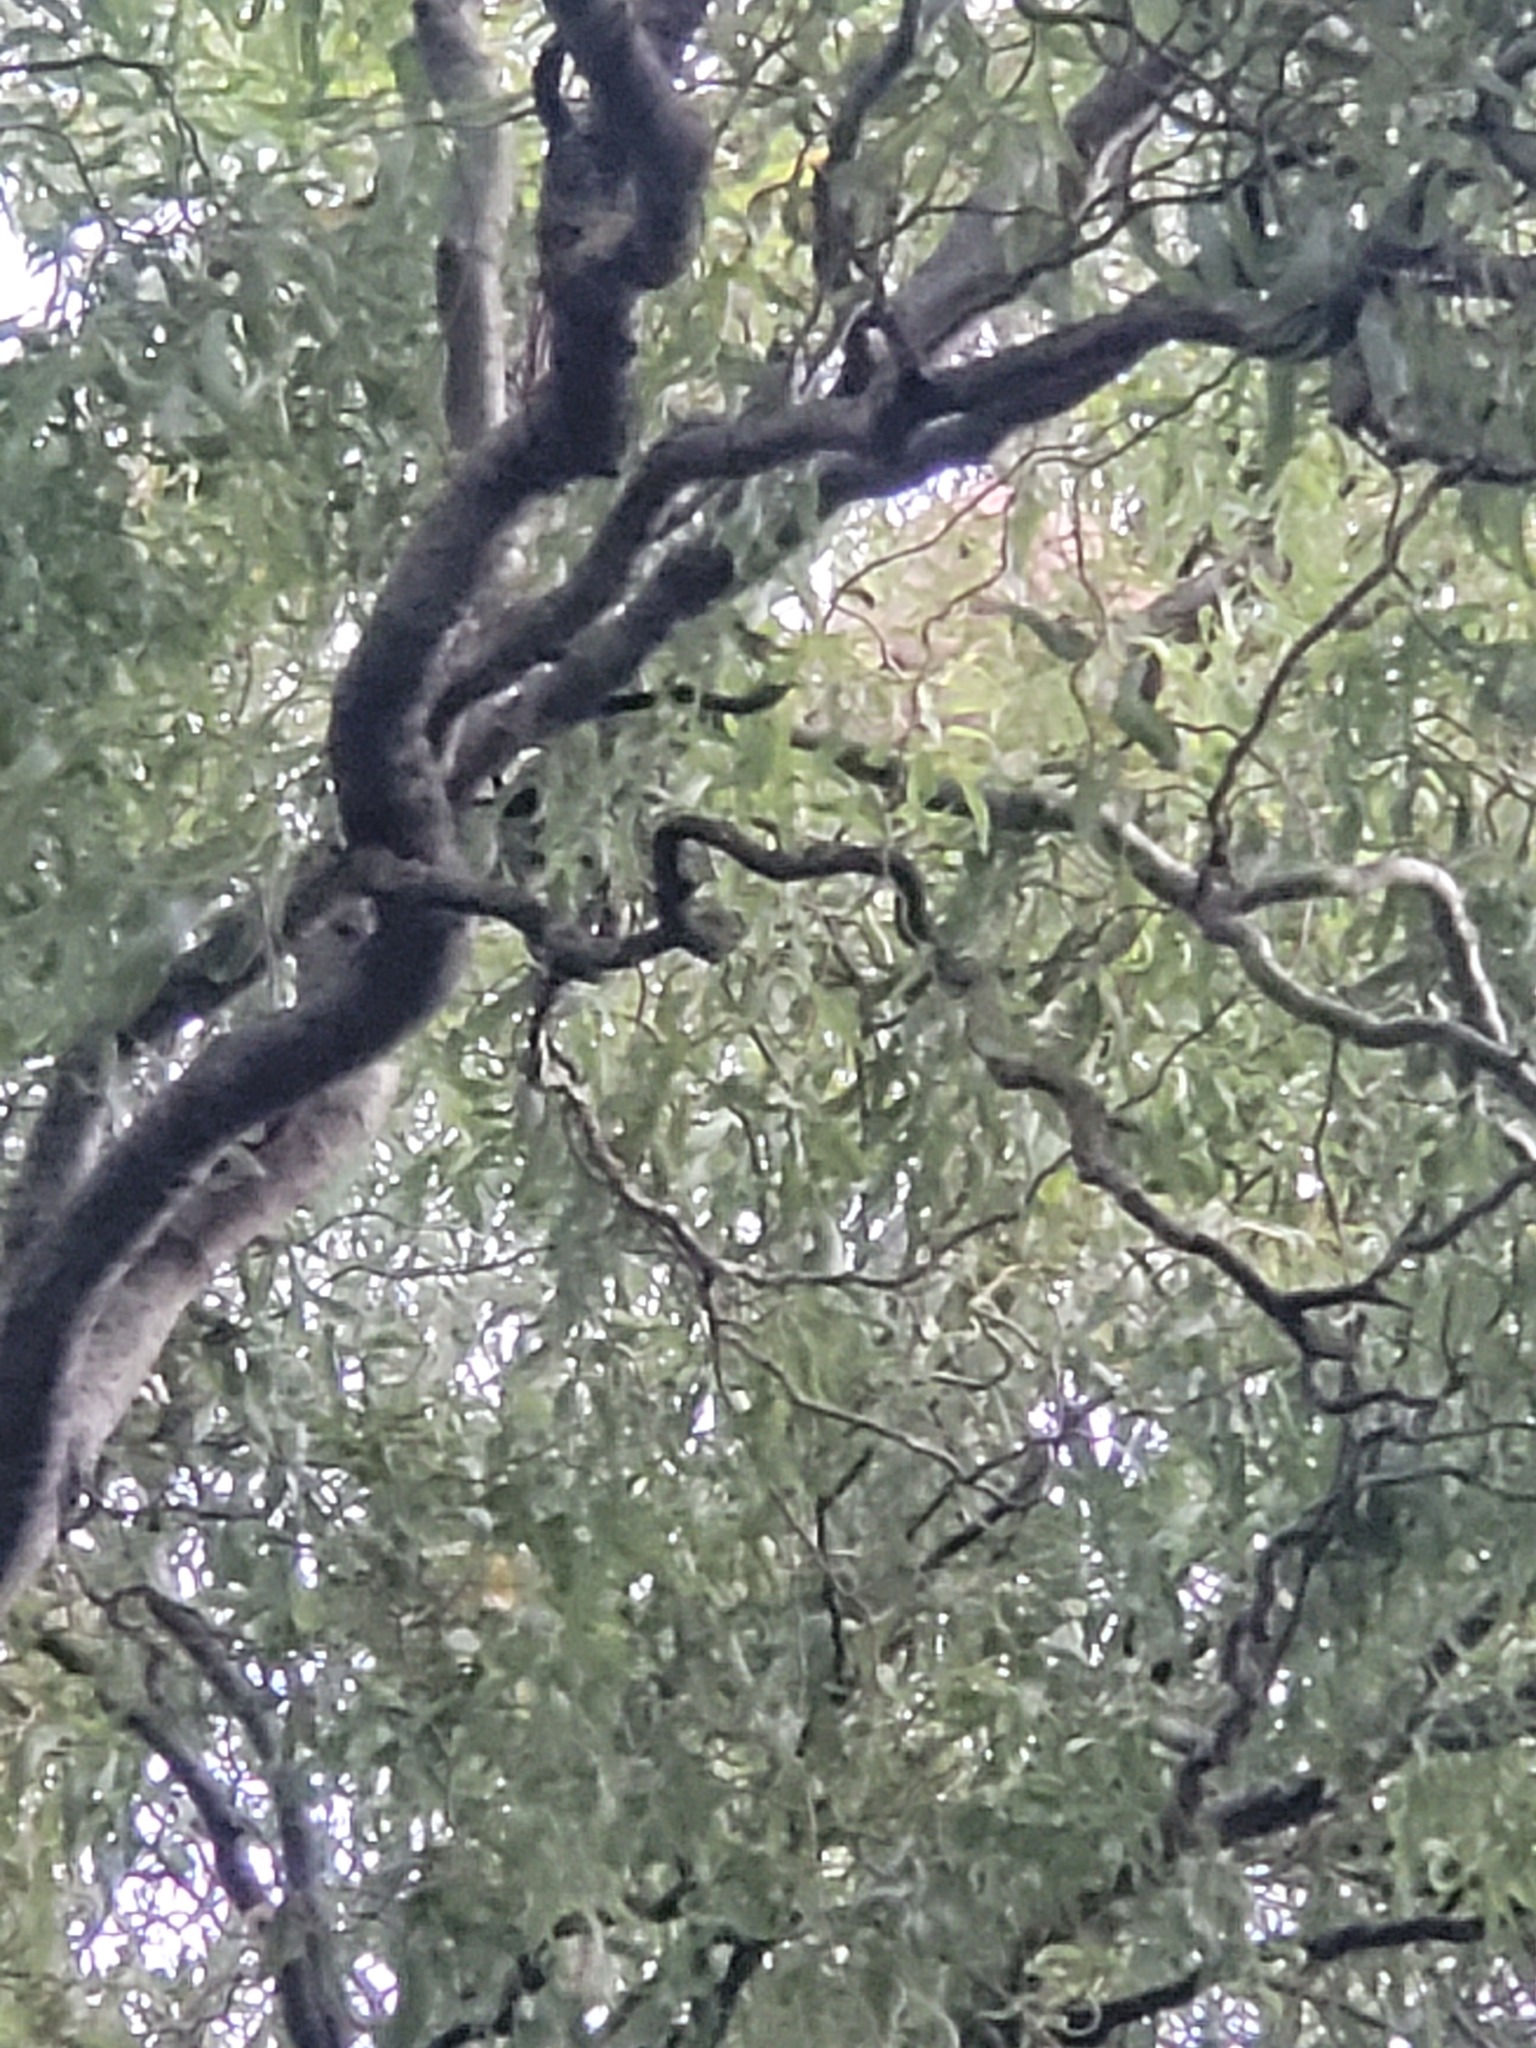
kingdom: Animalia
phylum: Arthropoda
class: Insecta
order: Hymenoptera
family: Vespidae
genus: Vespa
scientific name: Vespa velutina
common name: Asian hornet
